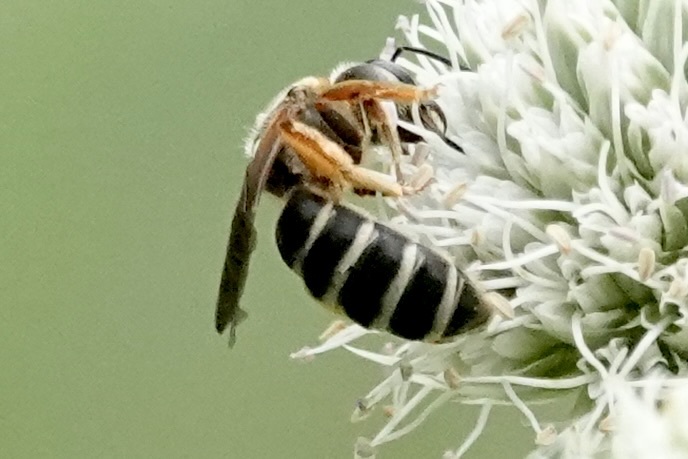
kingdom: Animalia
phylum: Arthropoda
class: Insecta
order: Hymenoptera
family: Halictidae
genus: Halictus
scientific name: Halictus parallelus
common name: Parallel-striped sweat bee
